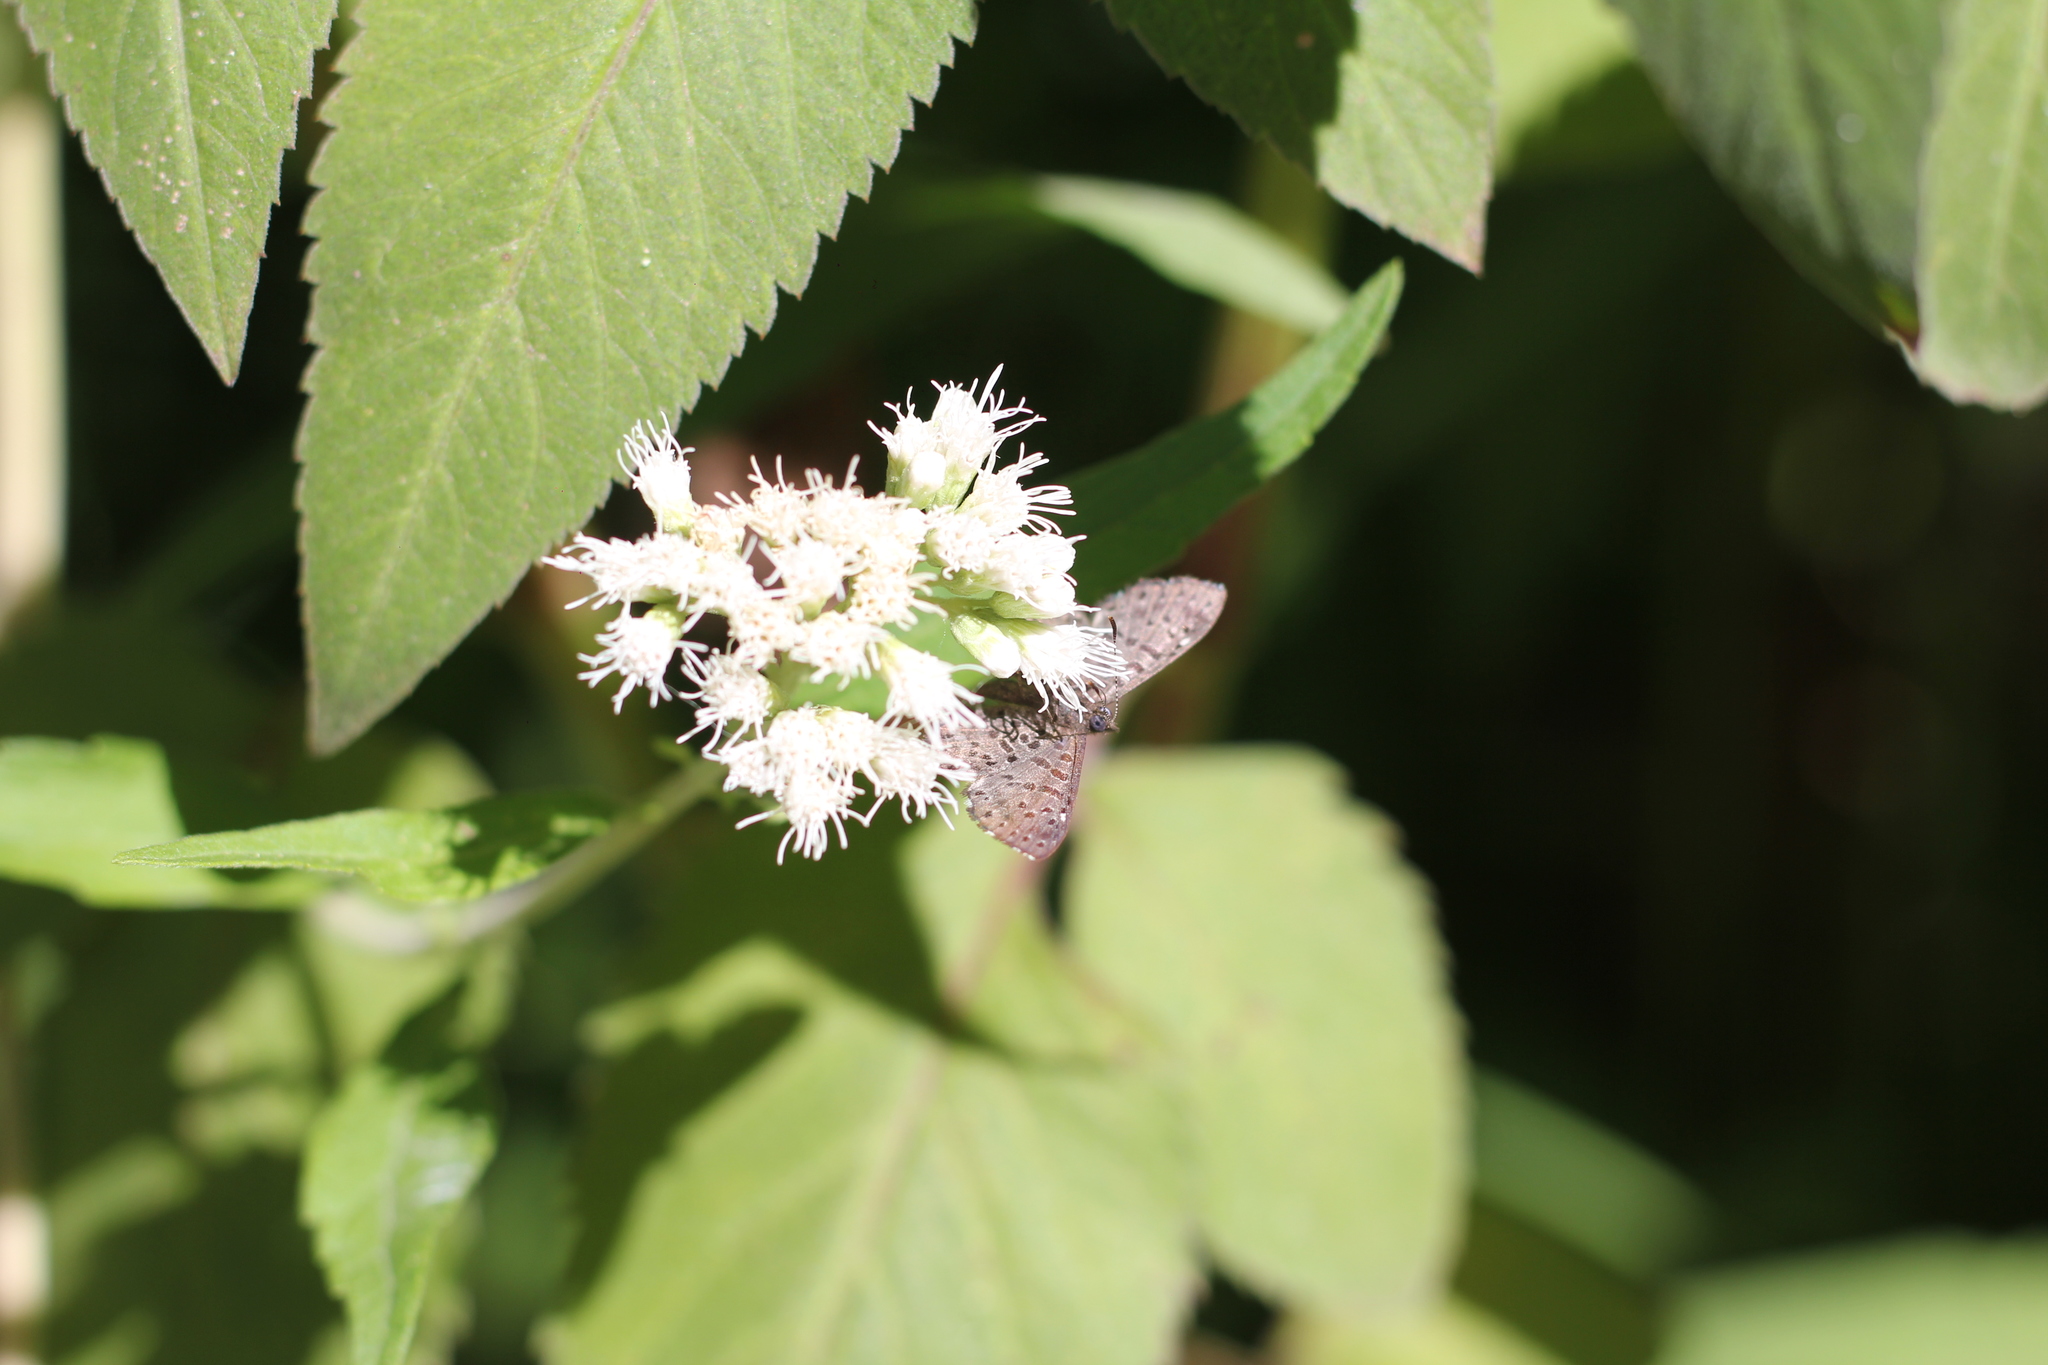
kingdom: Animalia
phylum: Arthropoda
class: Insecta
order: Lepidoptera
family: Riodinidae
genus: Teenie
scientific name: Teenie tinea
